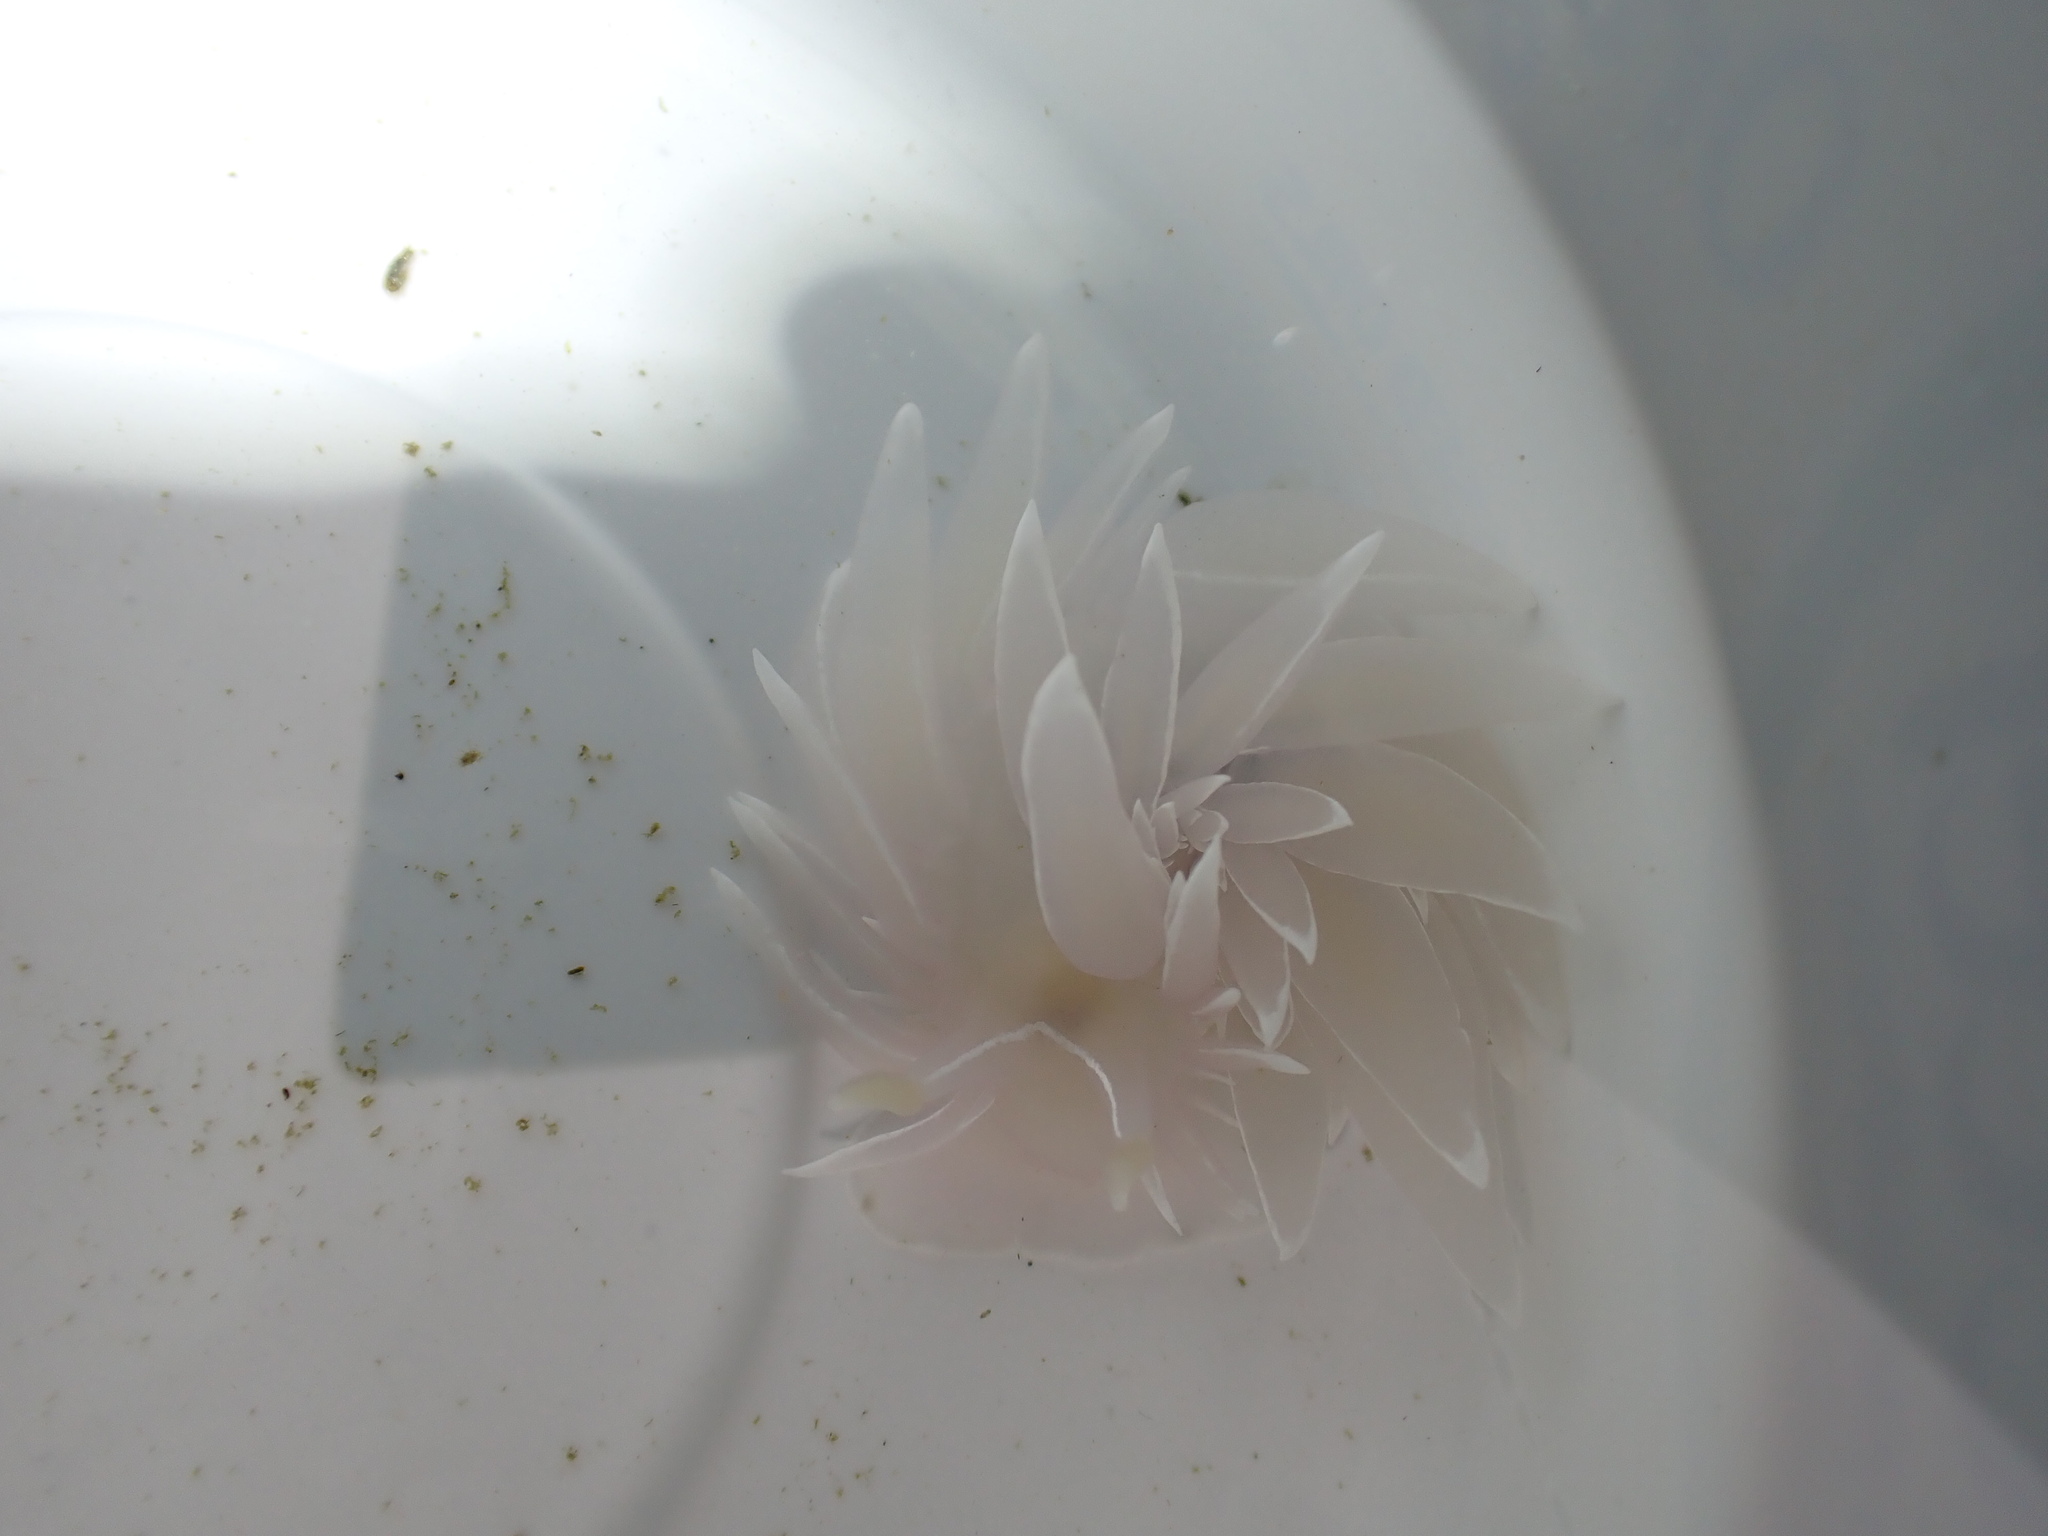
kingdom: Animalia
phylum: Mollusca
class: Gastropoda
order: Nudibranchia
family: Dironidae
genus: Dirona
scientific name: Dirona albolineata
